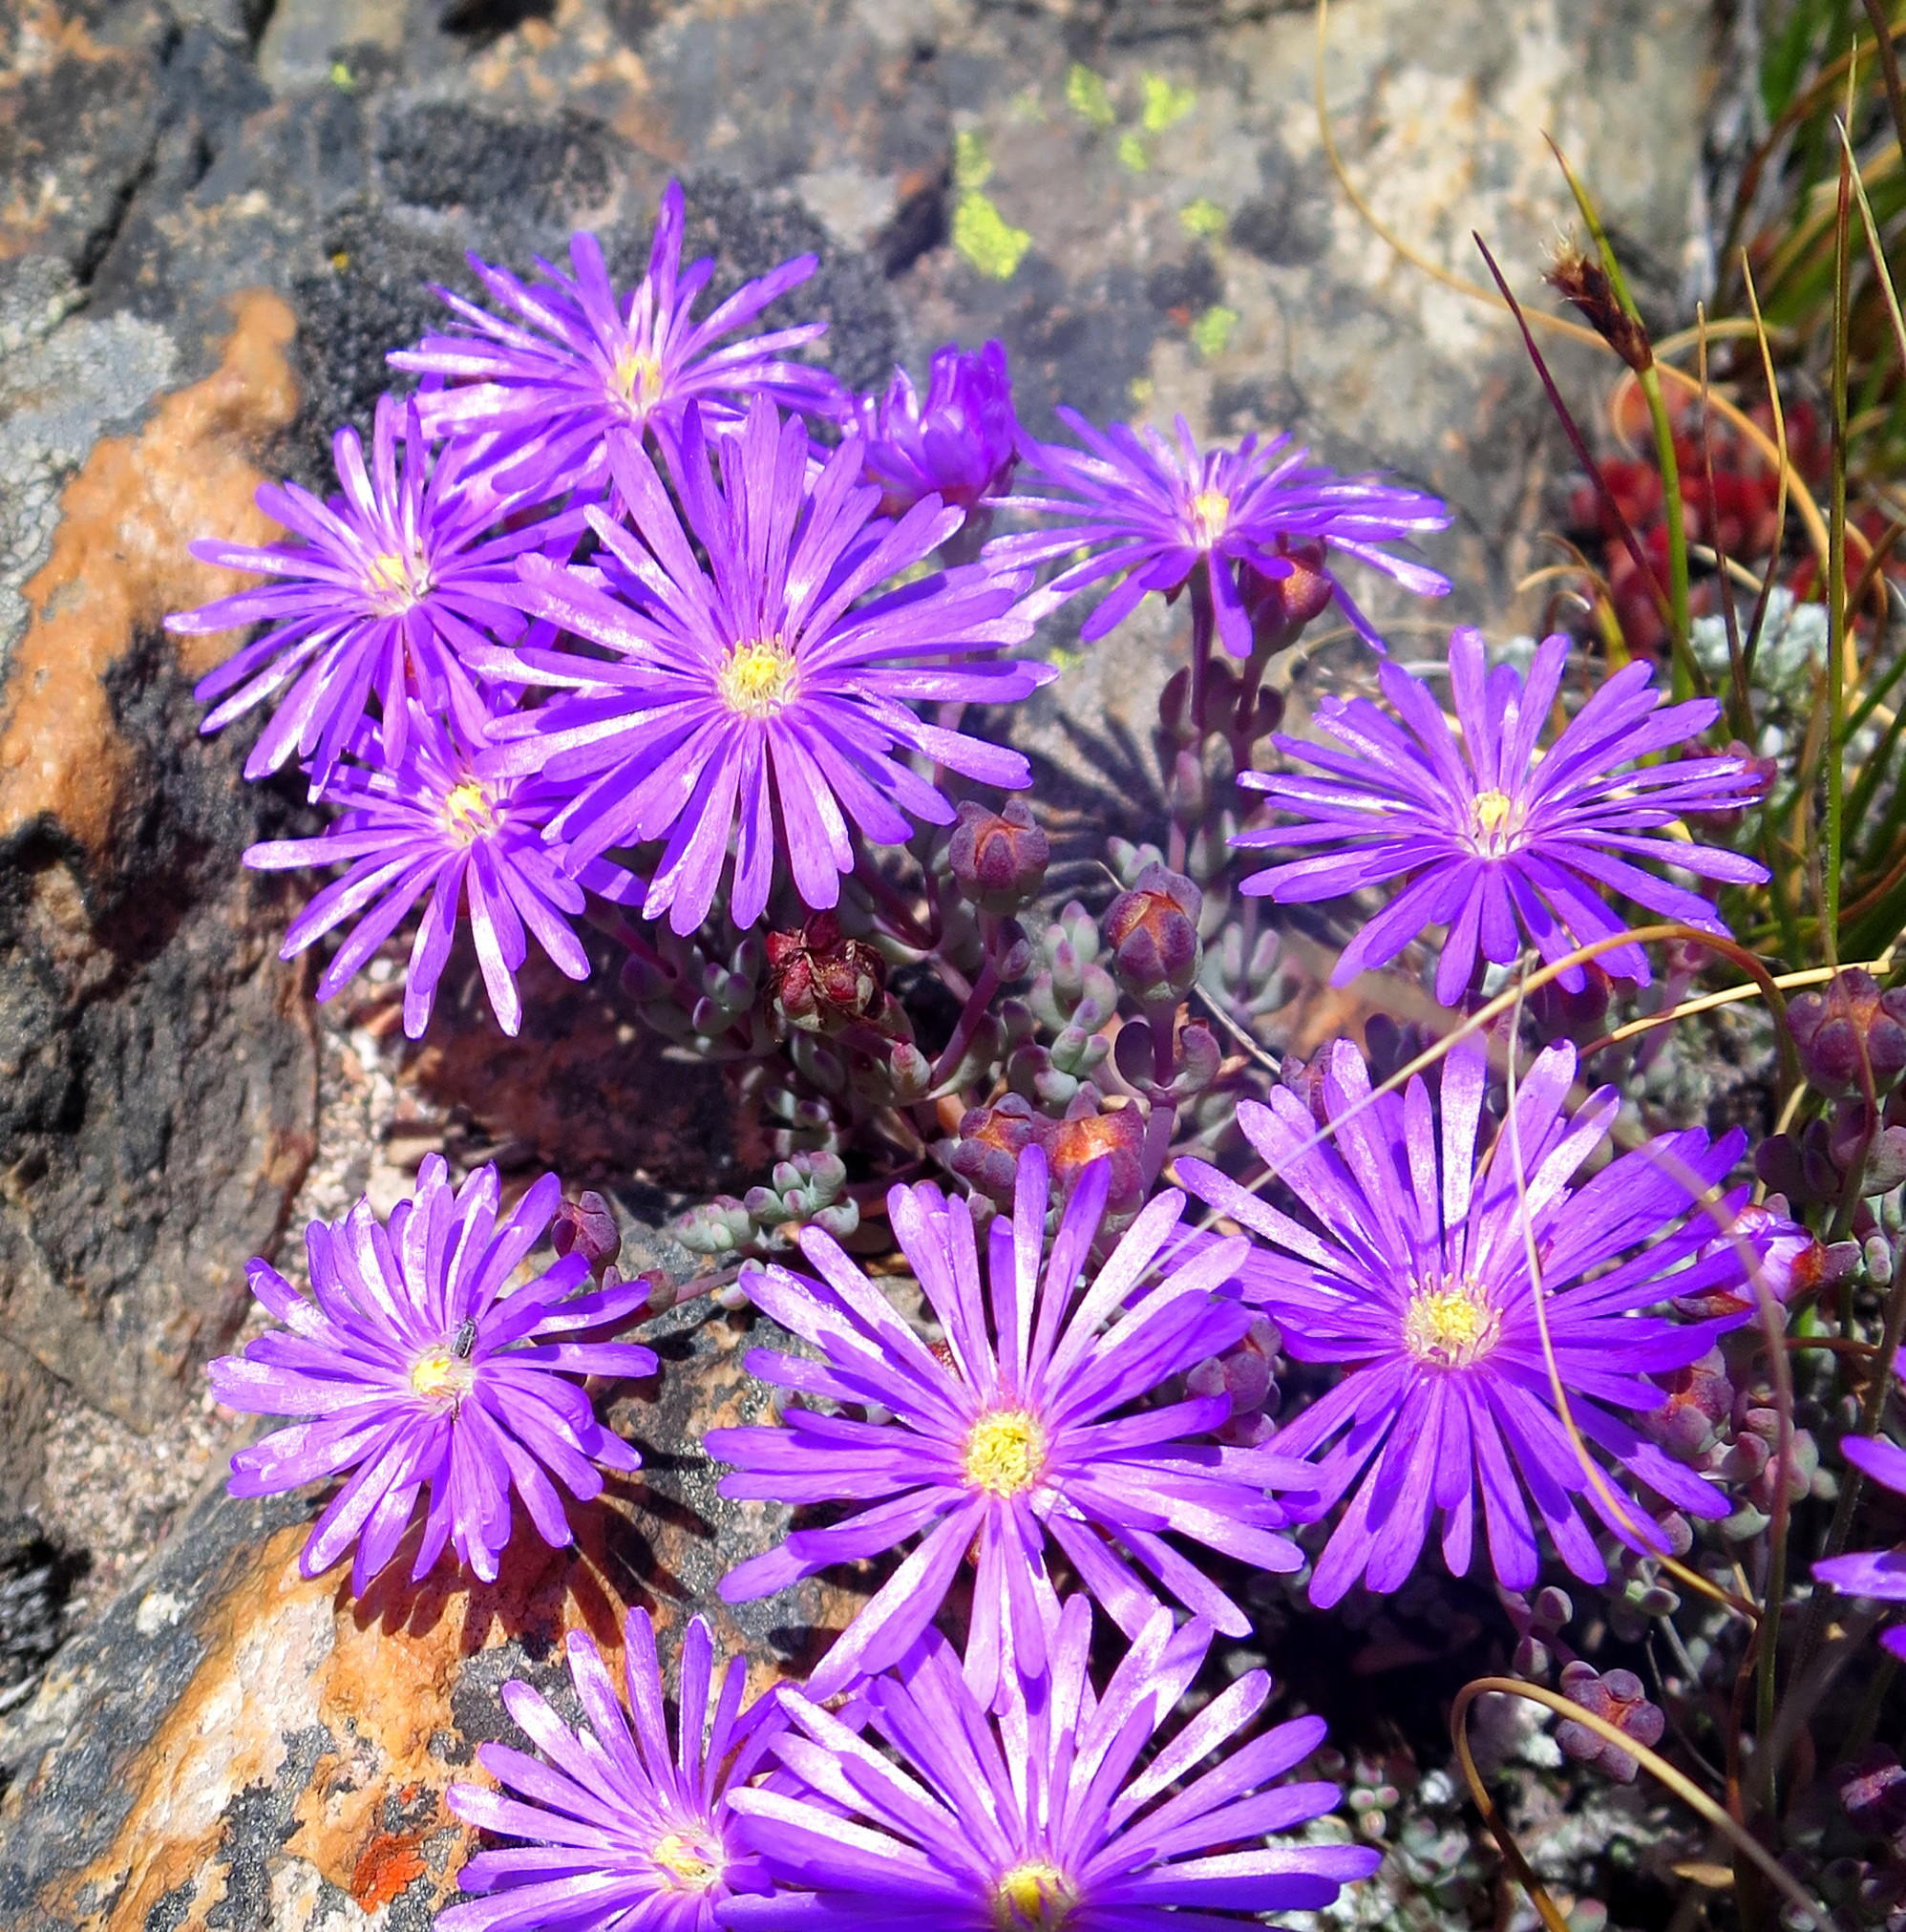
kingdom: Plantae
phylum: Tracheophyta
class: Magnoliopsida
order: Caryophyllales
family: Aizoaceae
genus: Lampranthus
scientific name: Lampranthus swartbergensis
